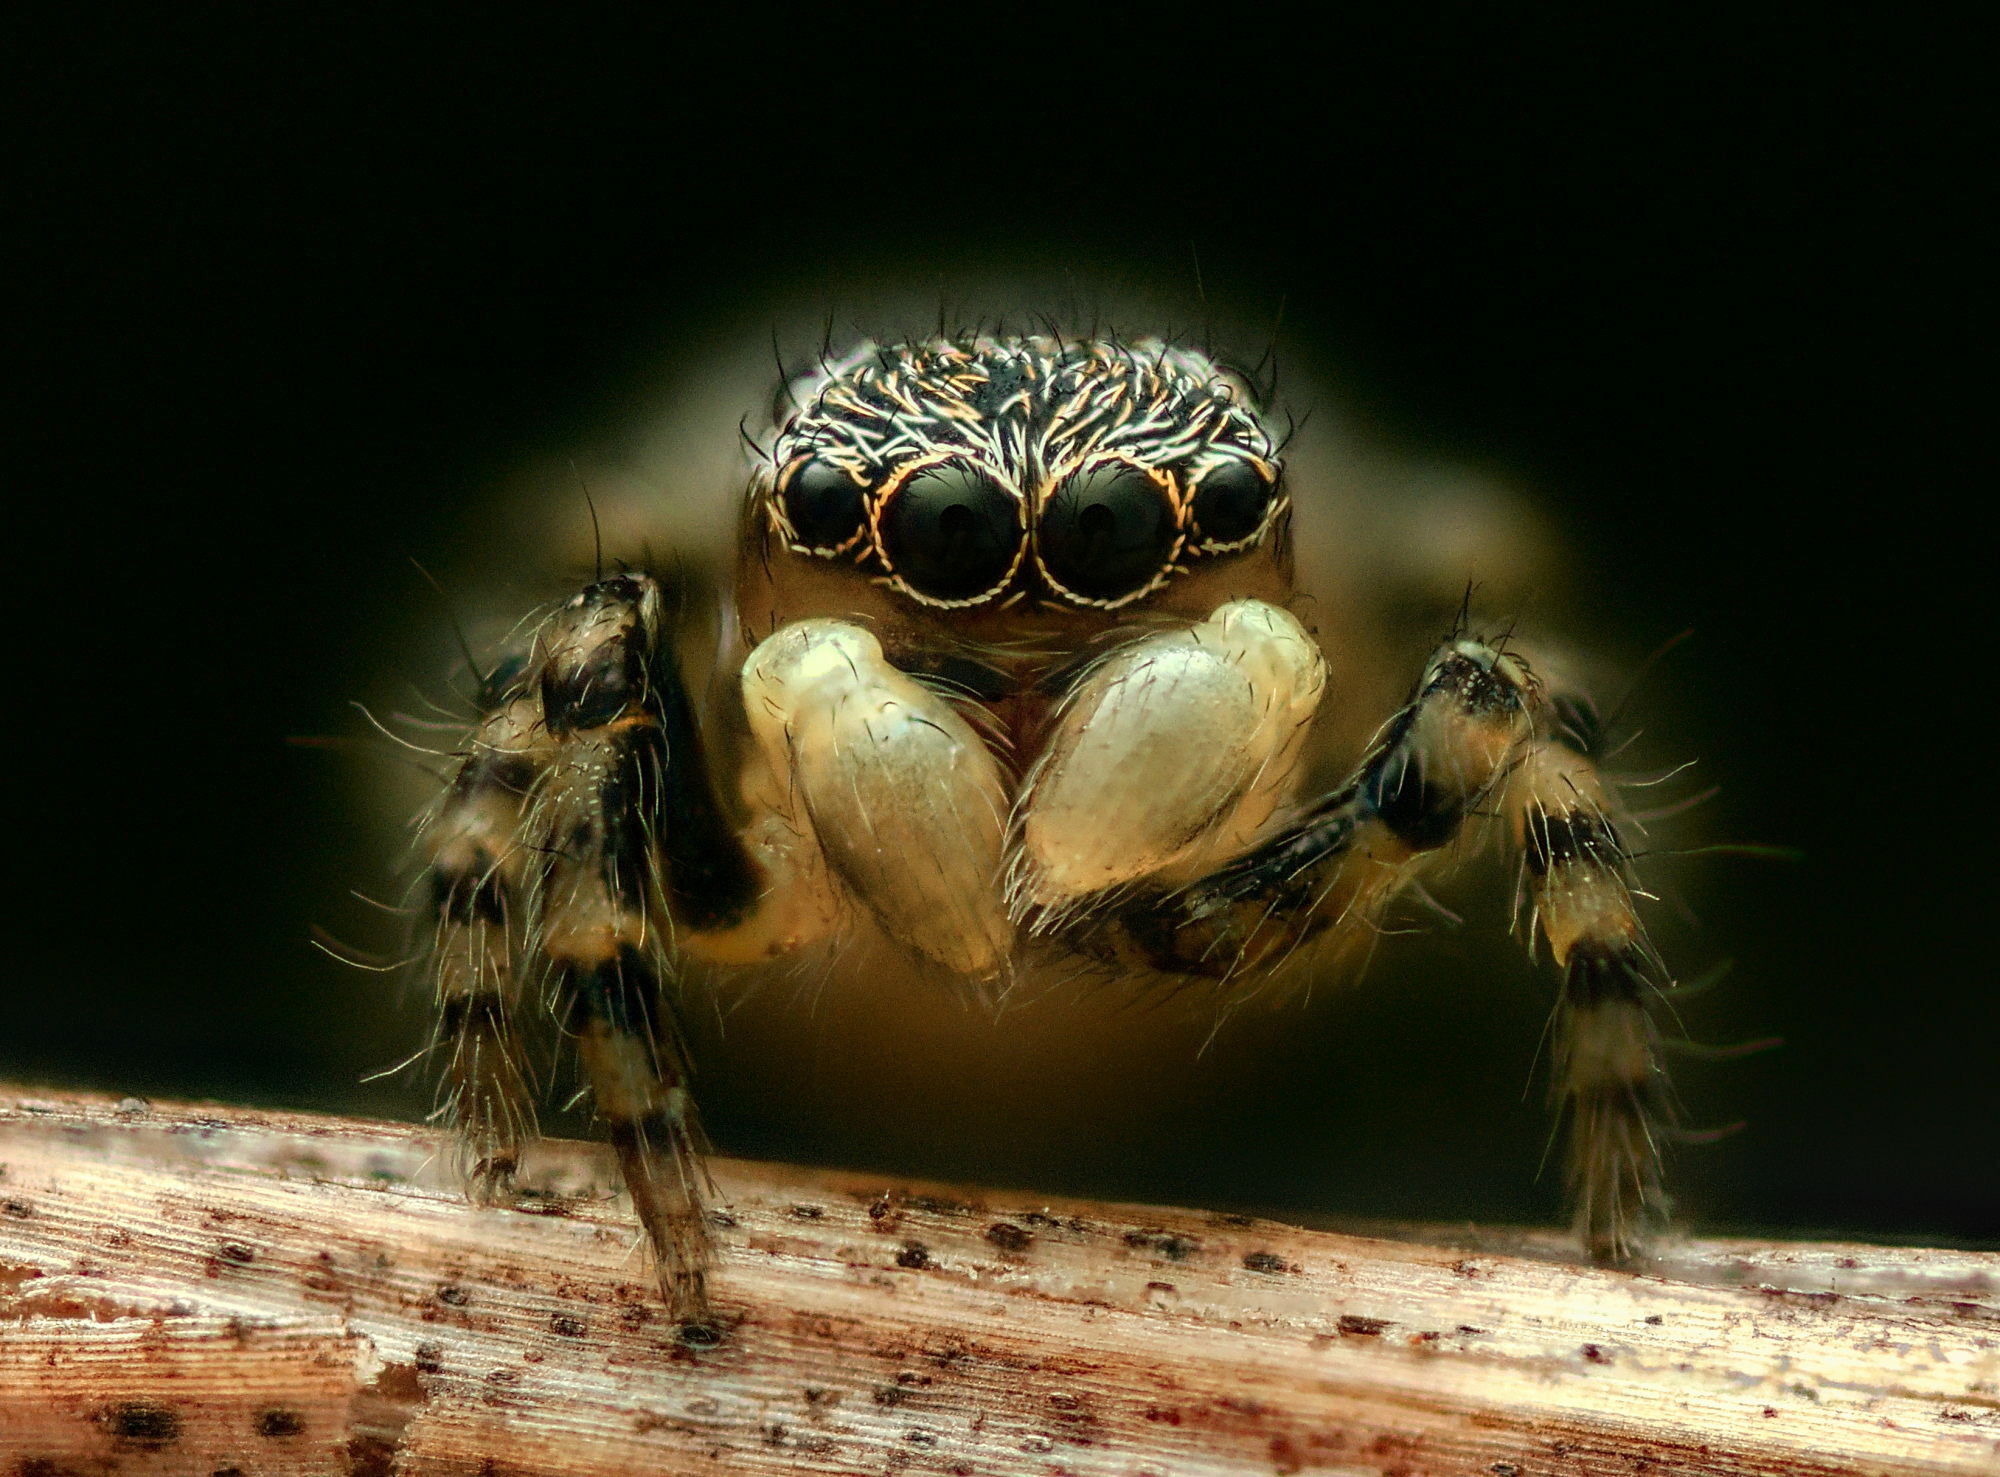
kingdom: Animalia
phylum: Arthropoda
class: Arachnida
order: Araneae
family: Salticidae
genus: Talavera
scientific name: Talavera aequipes
